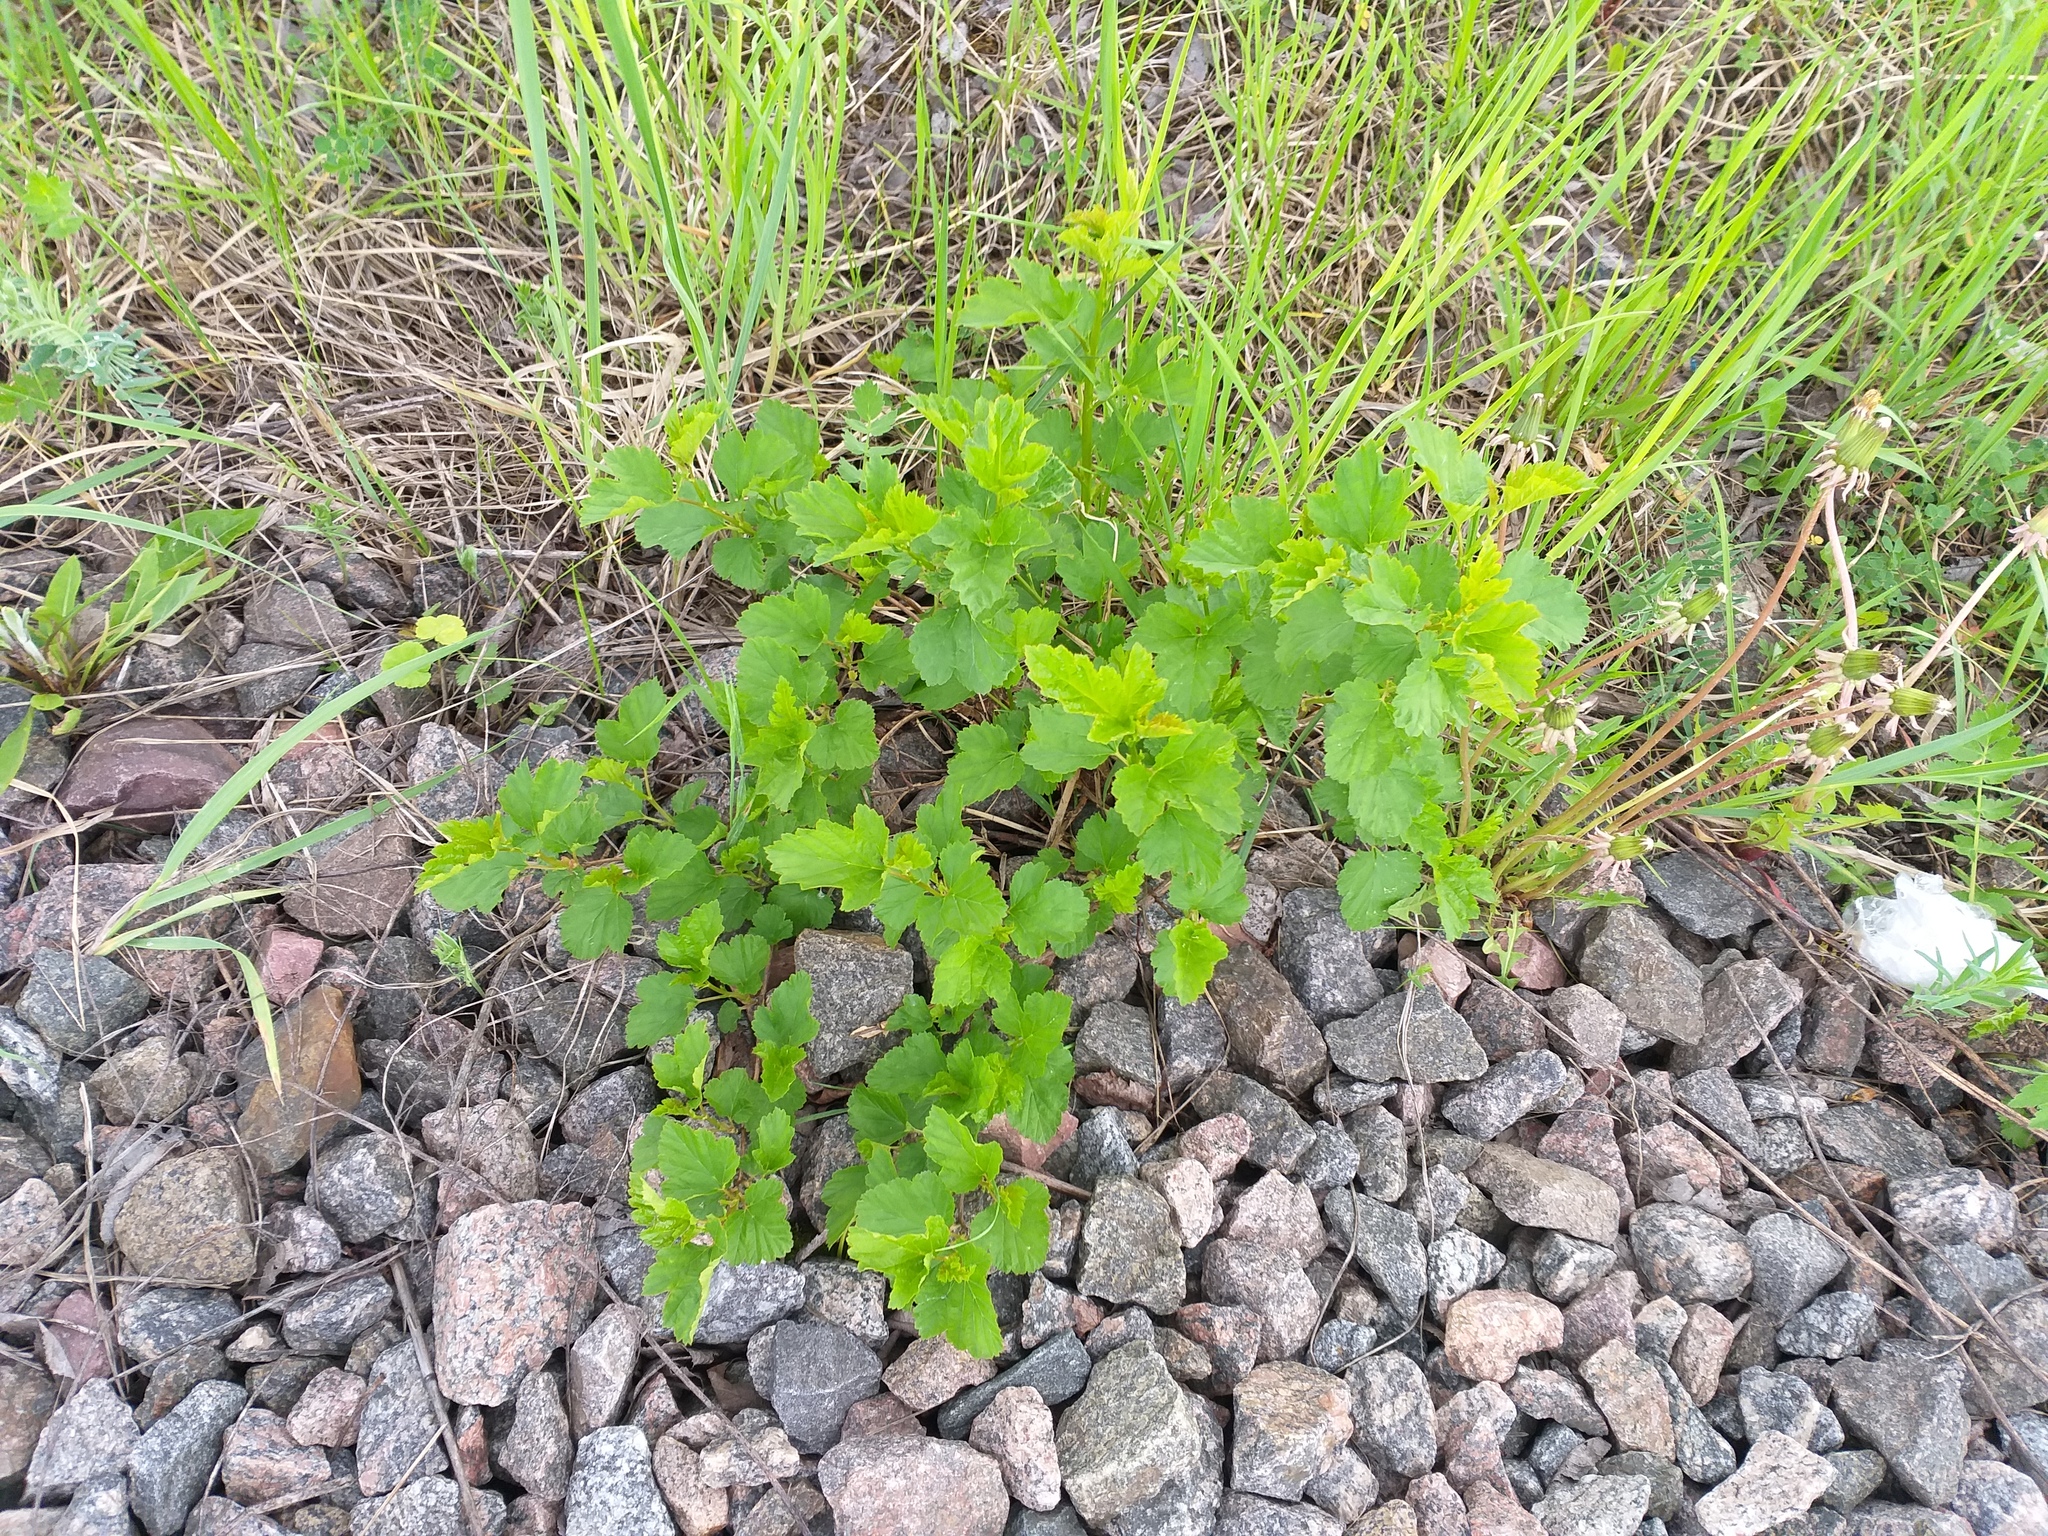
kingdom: Plantae
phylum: Tracheophyta
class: Magnoliopsida
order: Rosales
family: Rosaceae
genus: Physocarpus
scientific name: Physocarpus opulifolius
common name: Ninebark
